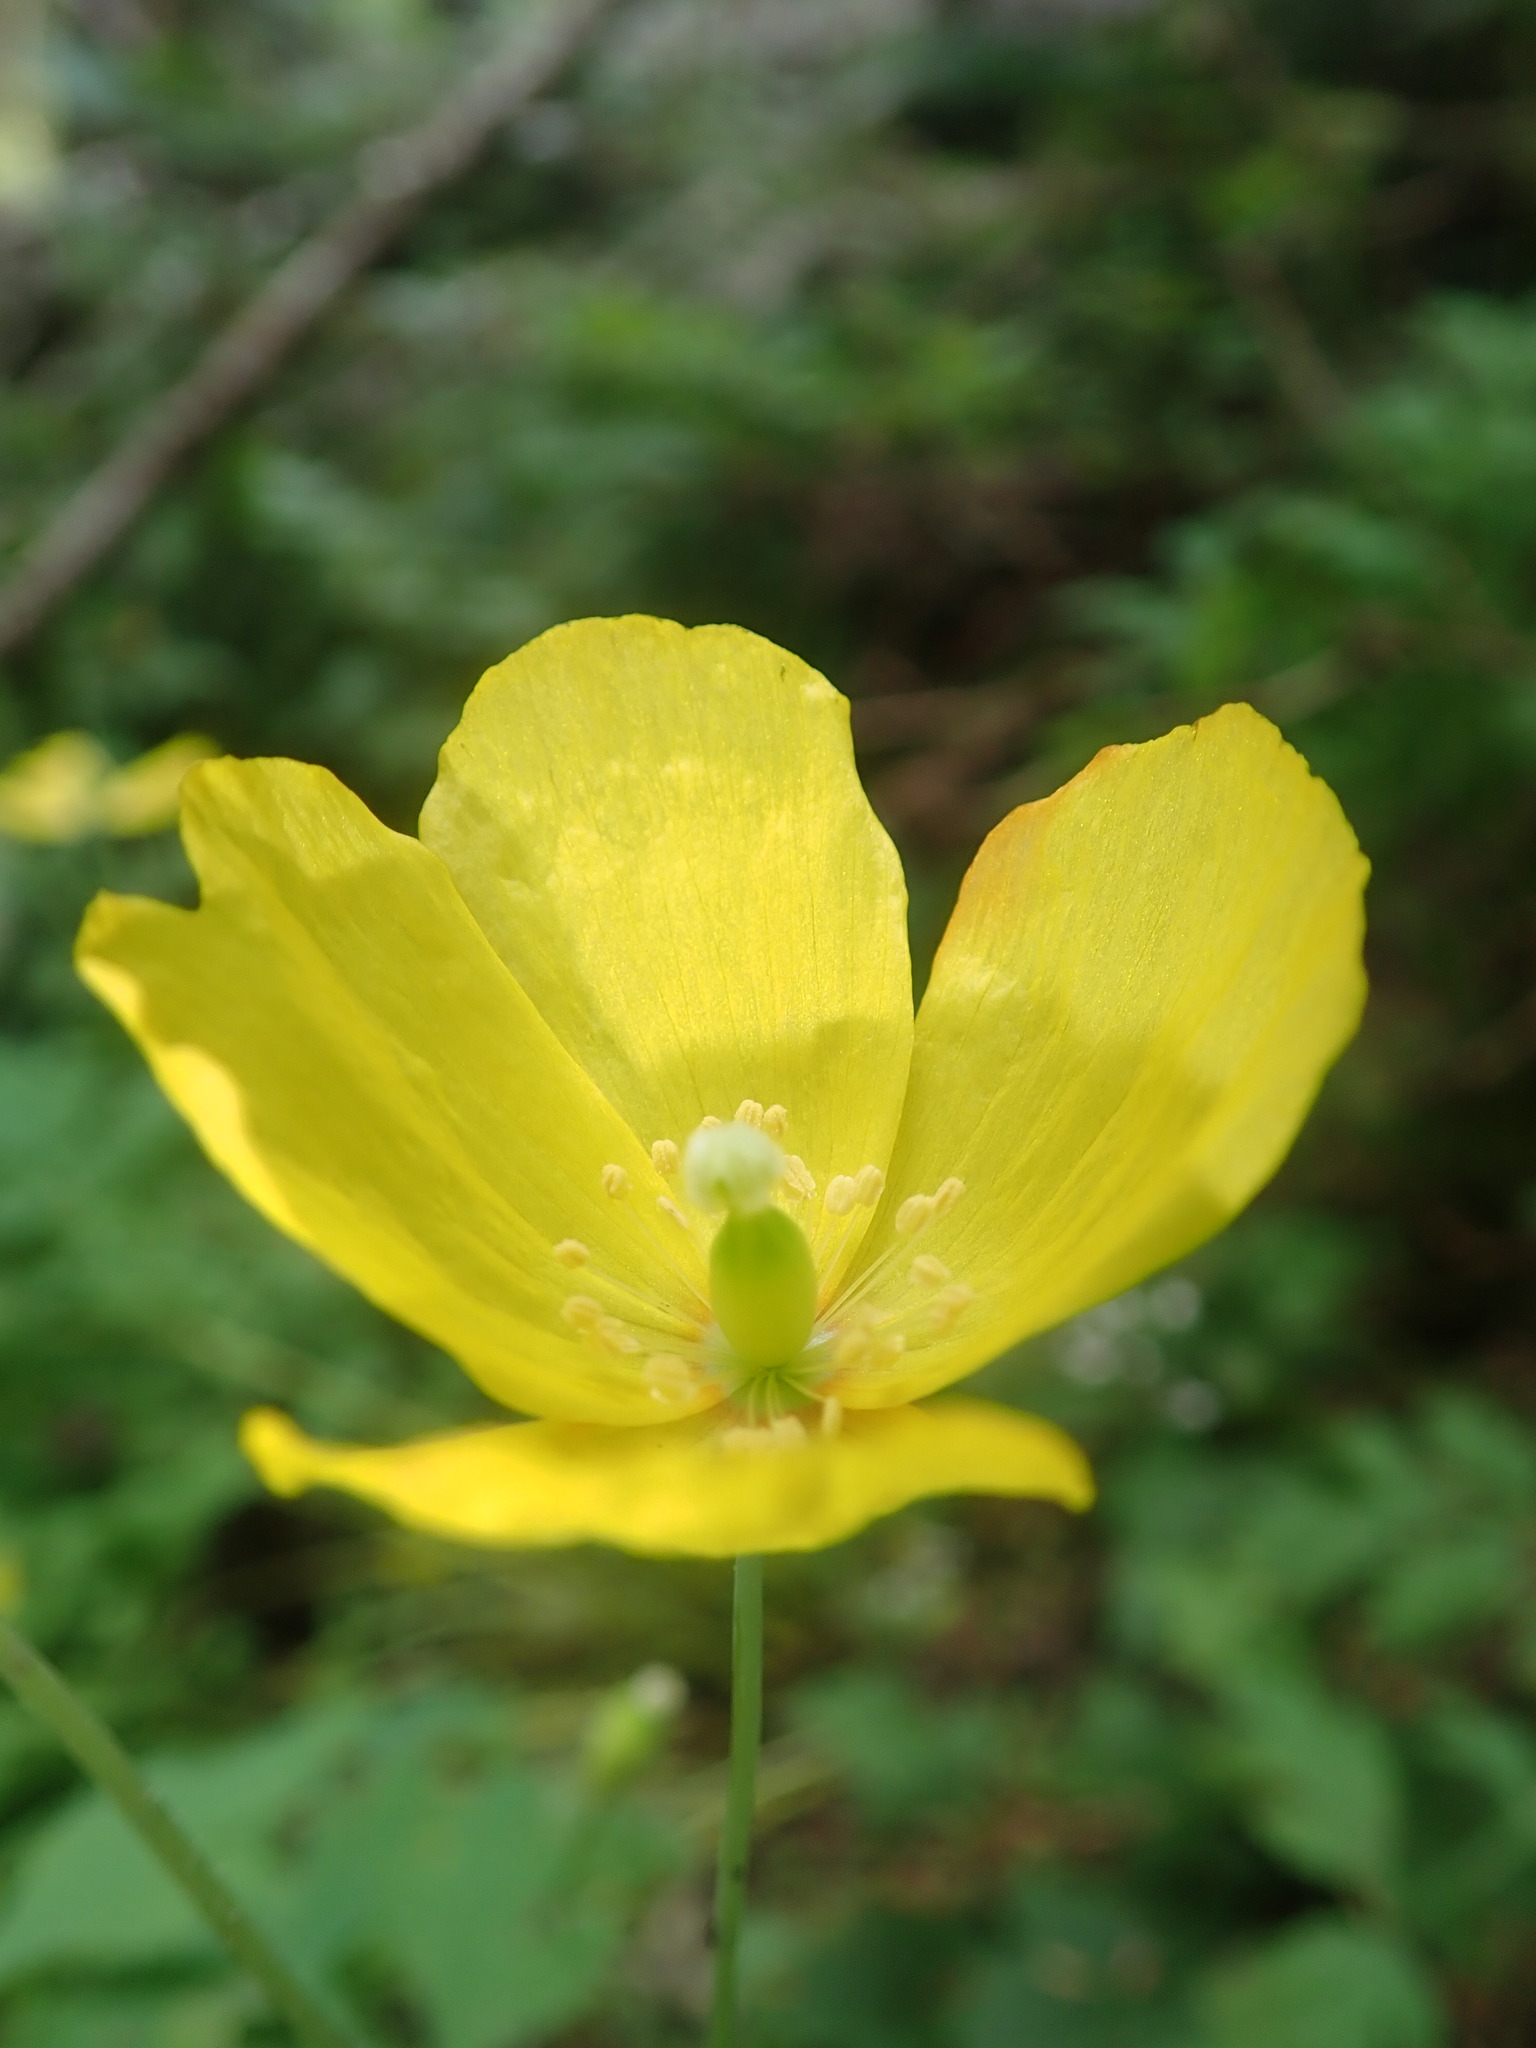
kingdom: Plantae
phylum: Tracheophyta
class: Magnoliopsida
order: Ranunculales
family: Papaveraceae
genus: Papaver
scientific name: Papaver cambricum
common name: Poppy
